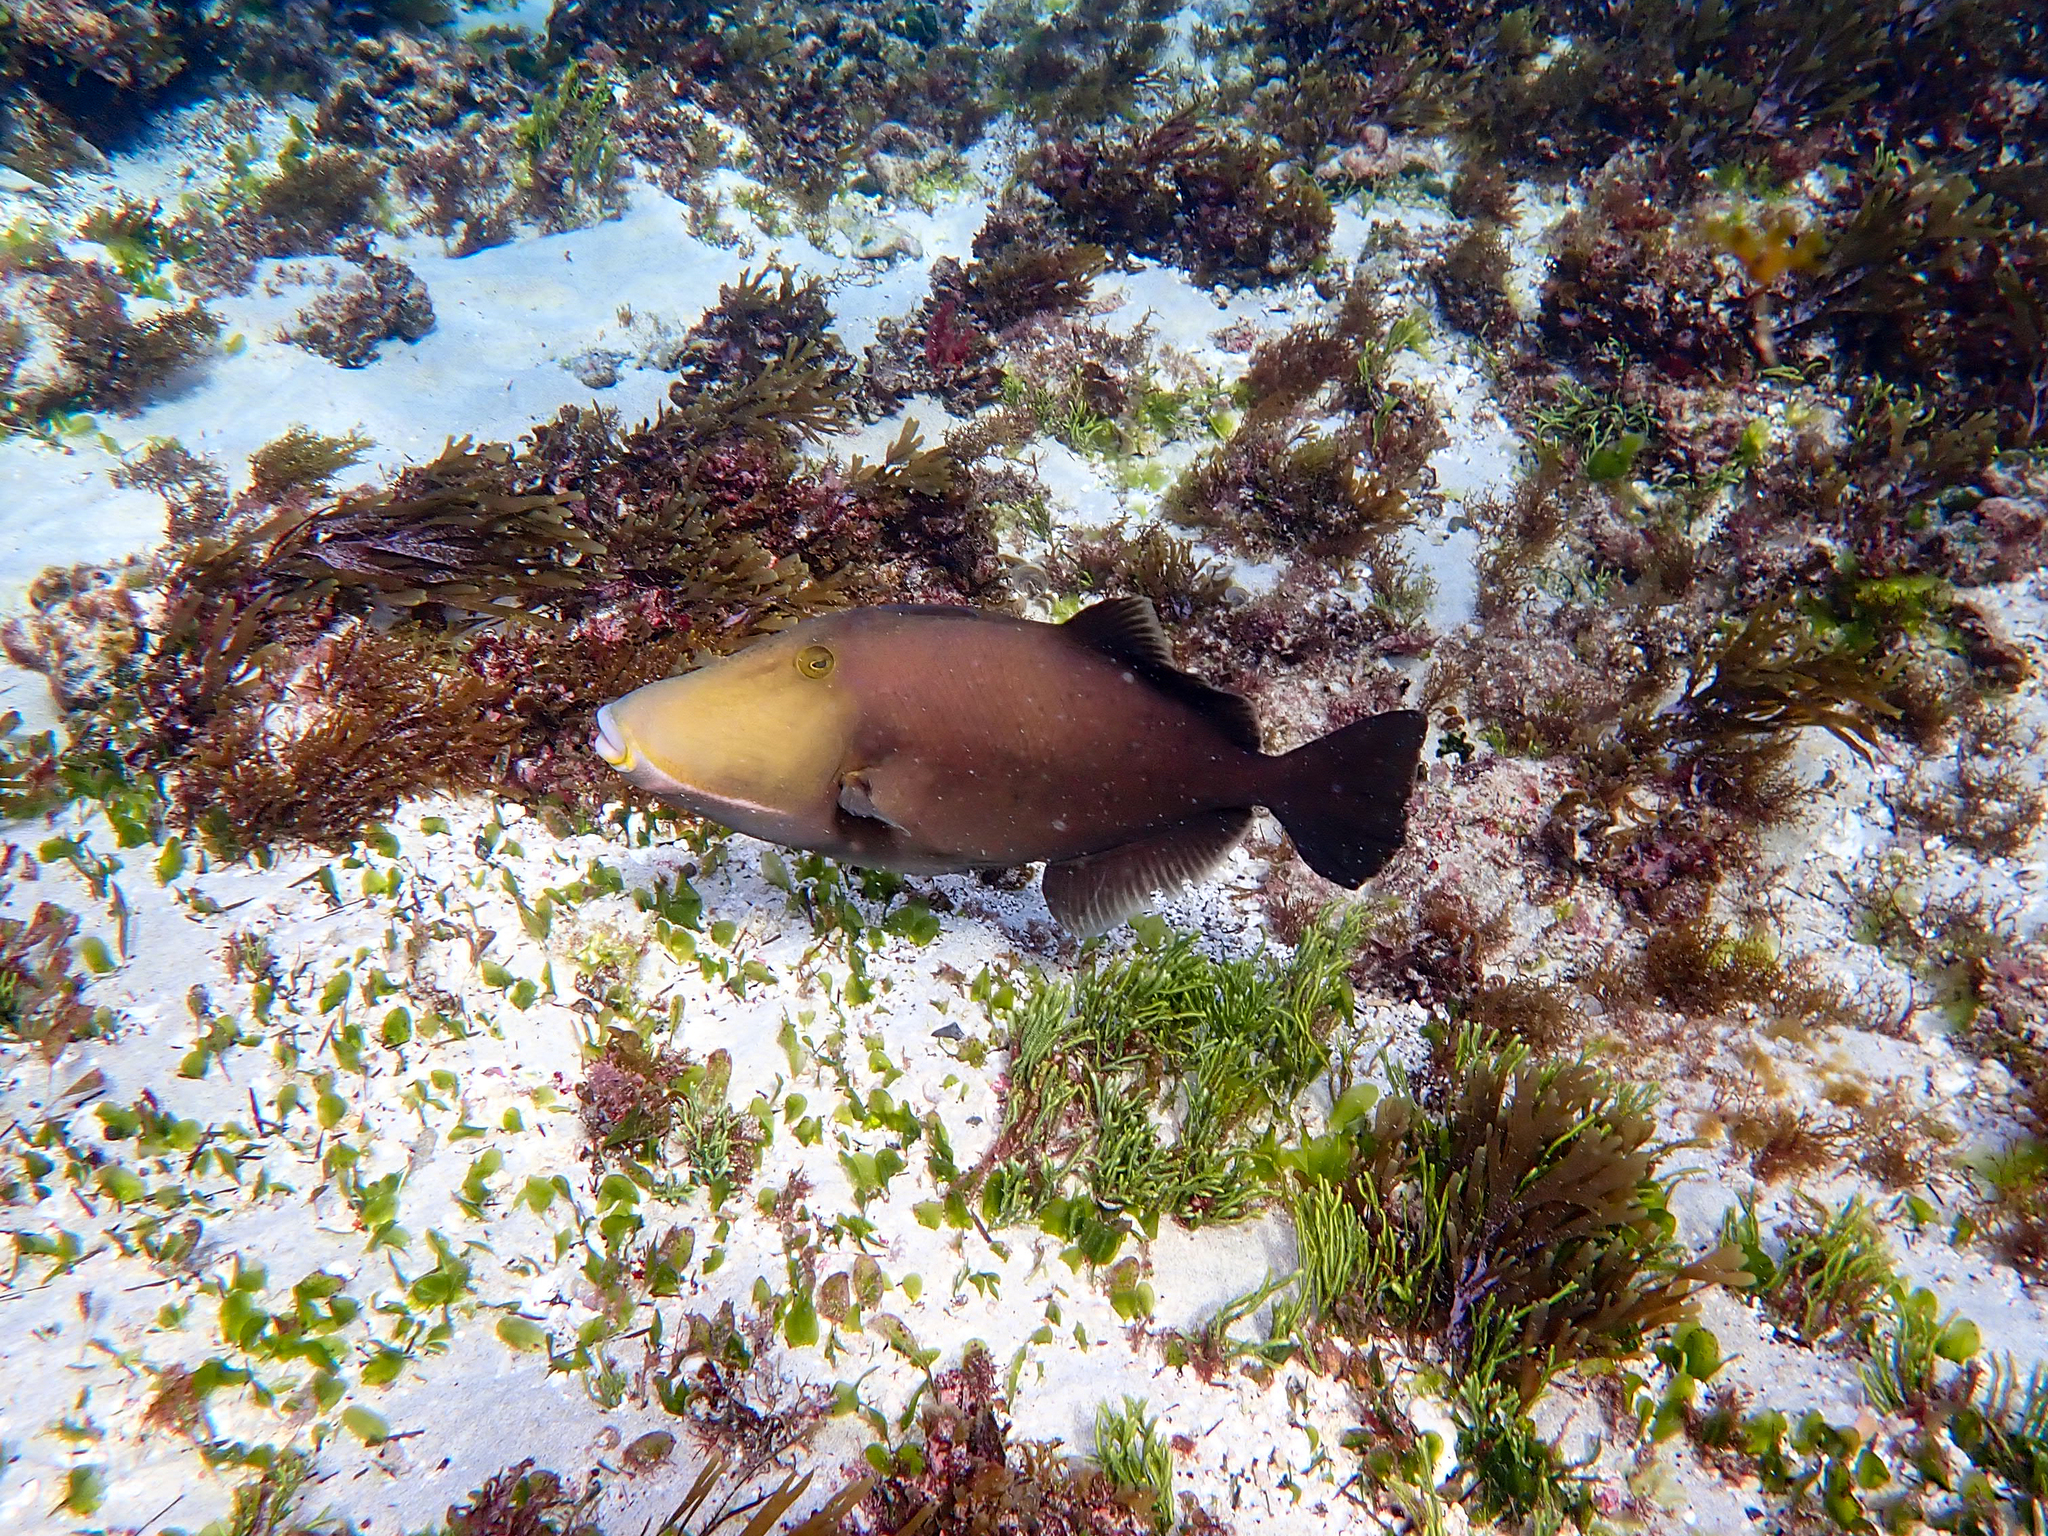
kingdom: Animalia
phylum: Chordata
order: Tetraodontiformes
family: Balistidae
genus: Sufflamen
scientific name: Sufflamen fraenatum
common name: Bridle triggerfish
